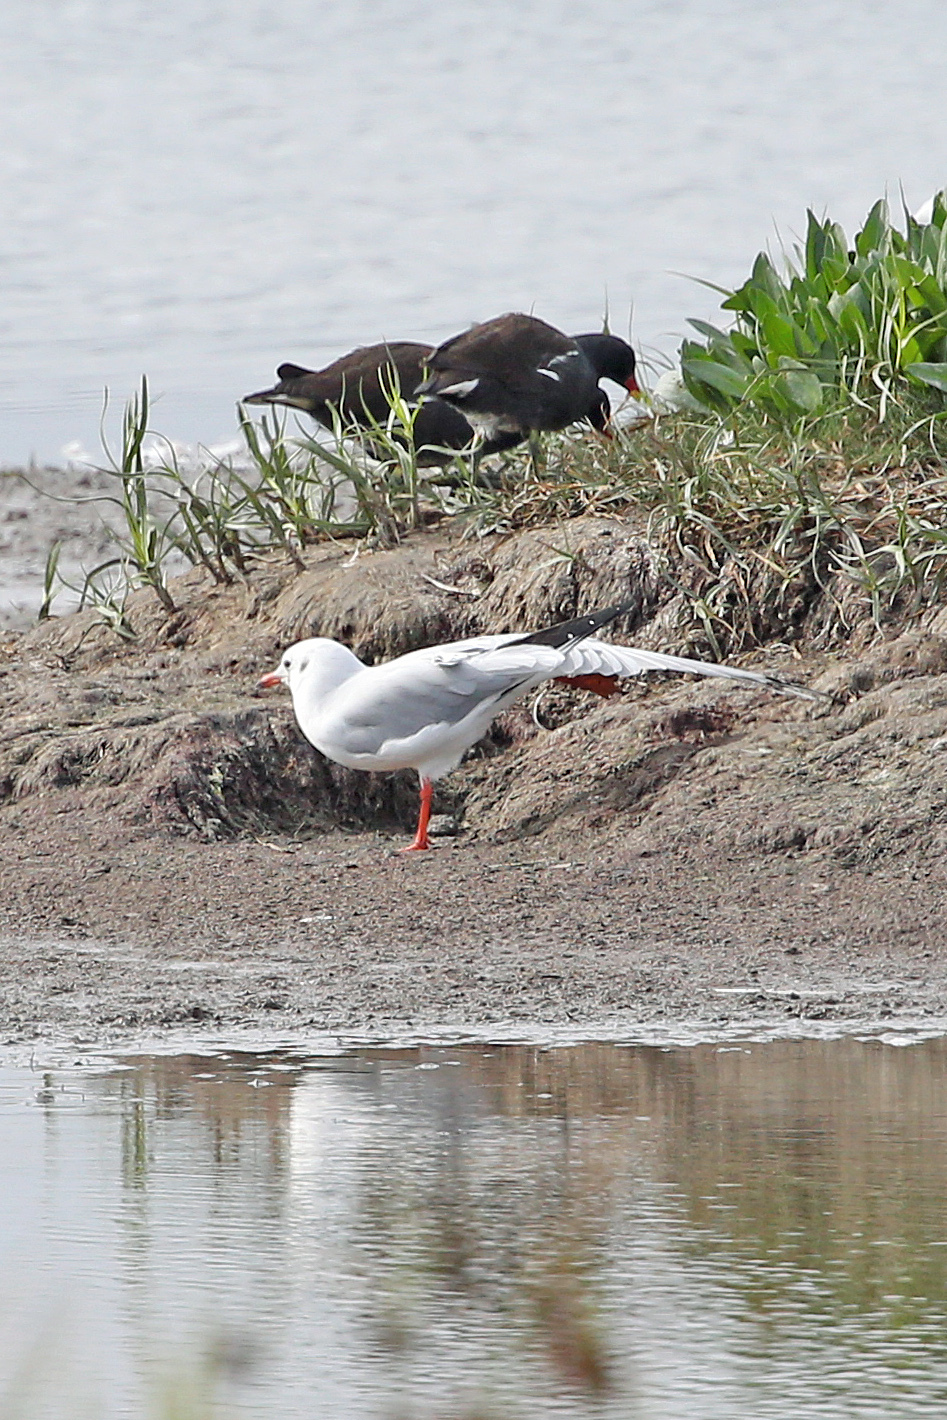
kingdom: Animalia
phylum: Chordata
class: Aves
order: Gruiformes
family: Rallidae
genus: Gallinula
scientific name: Gallinula chloropus
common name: Common moorhen
